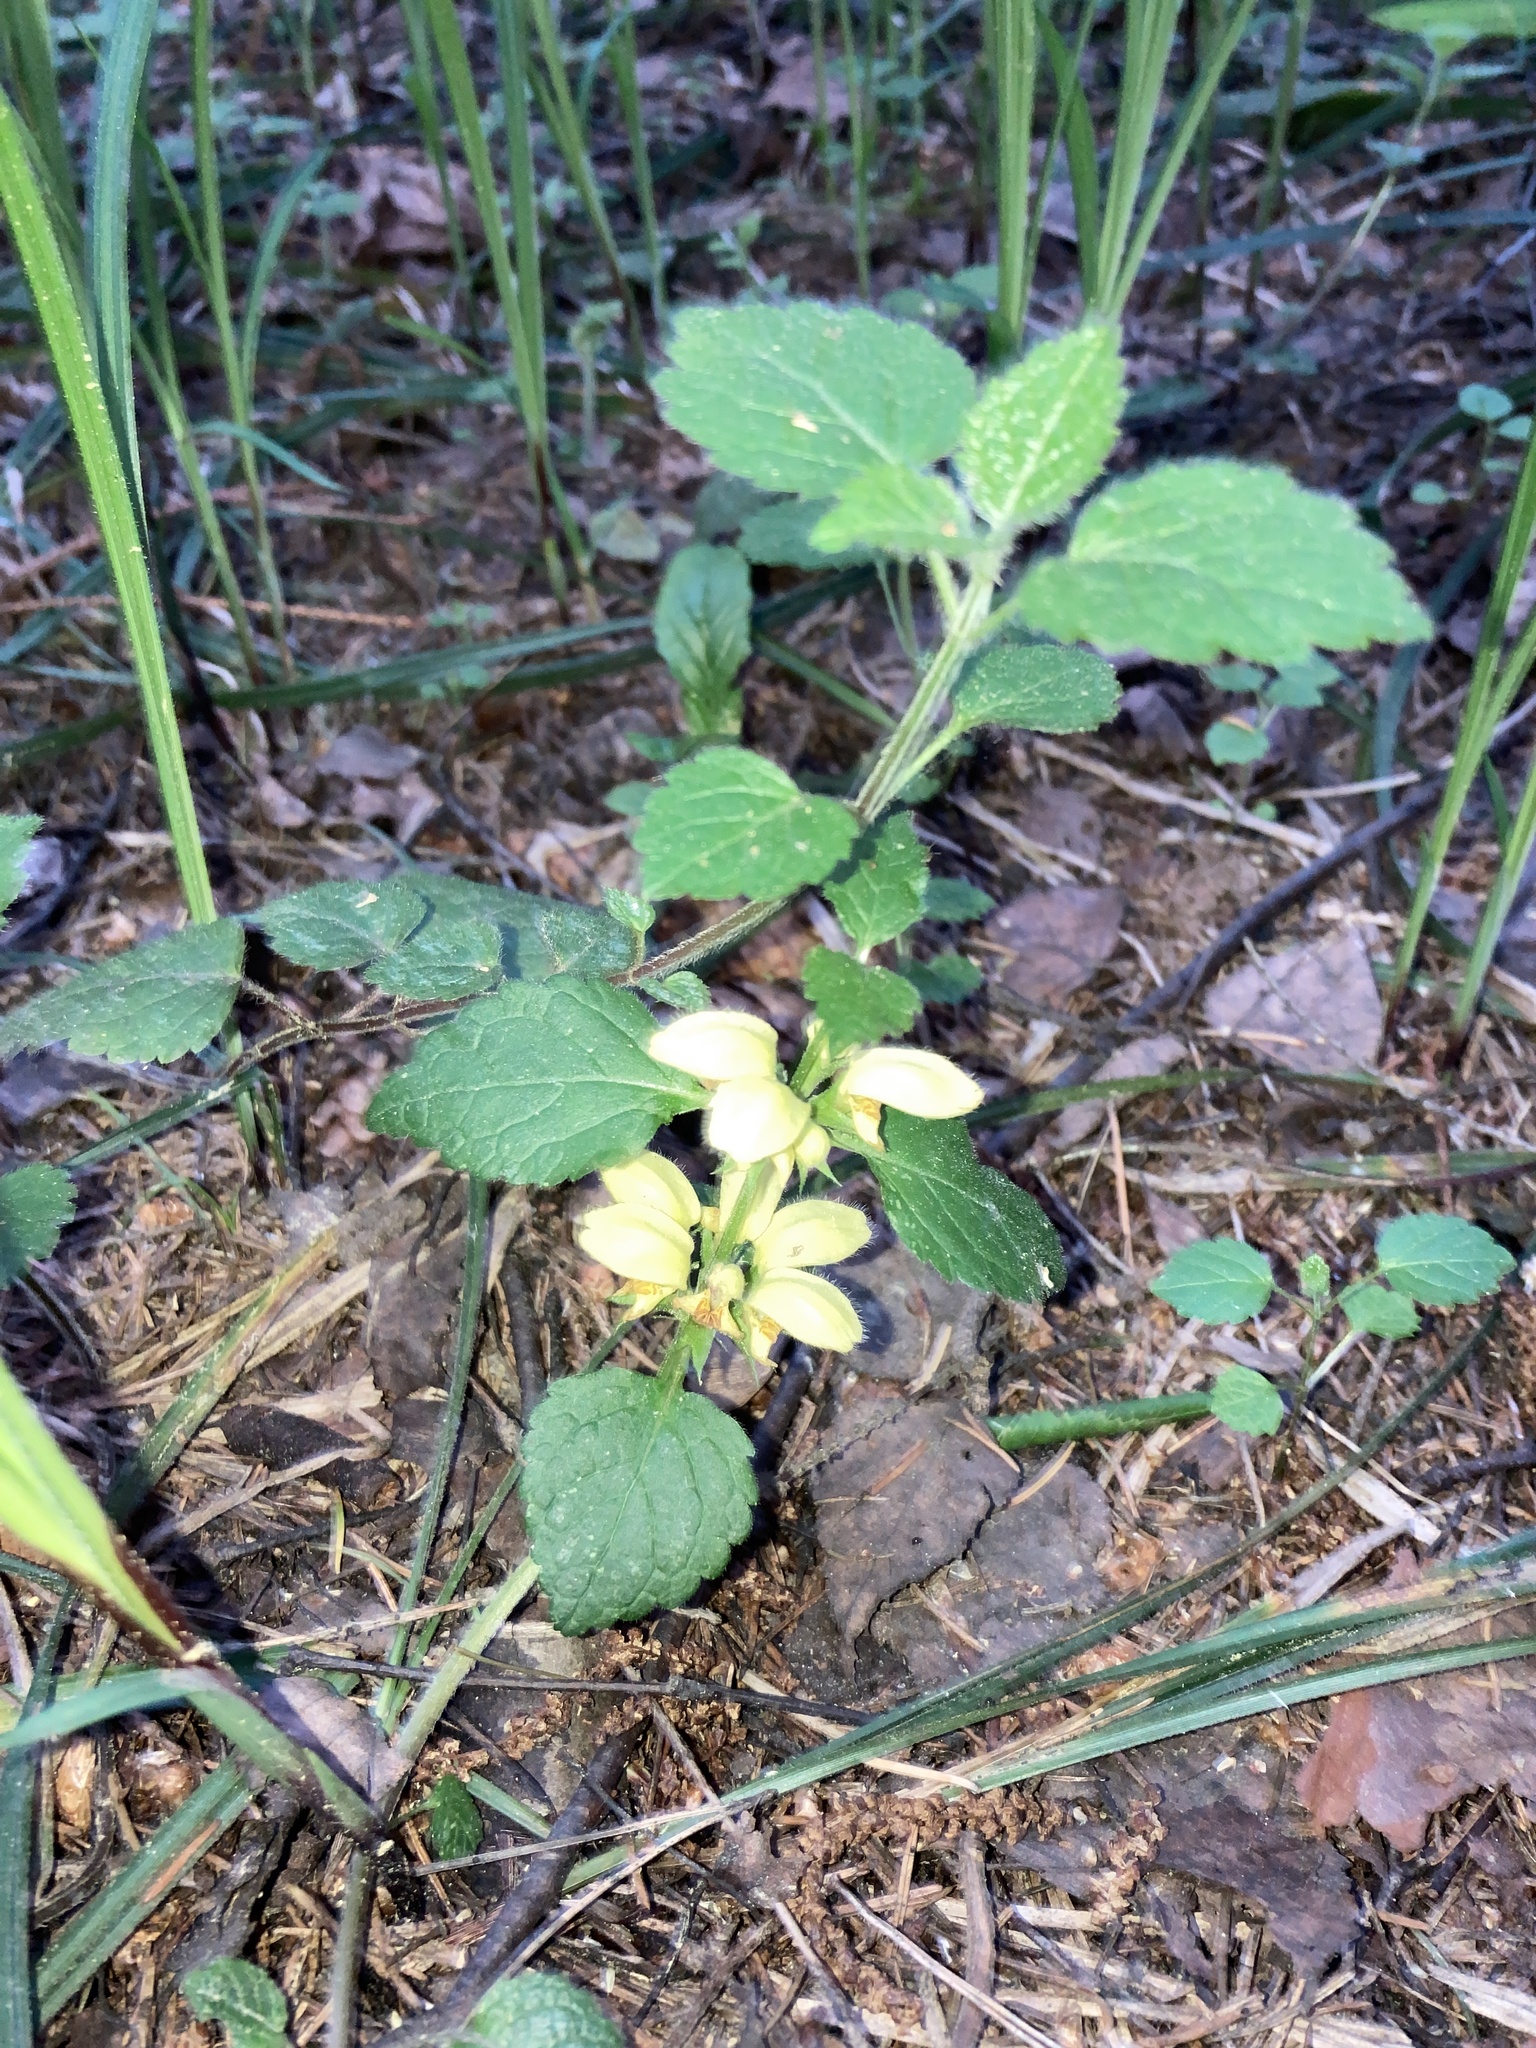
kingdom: Plantae
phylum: Tracheophyta
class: Magnoliopsida
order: Lamiales
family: Lamiaceae
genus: Lamium
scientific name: Lamium galeobdolon
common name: Yellow archangel
